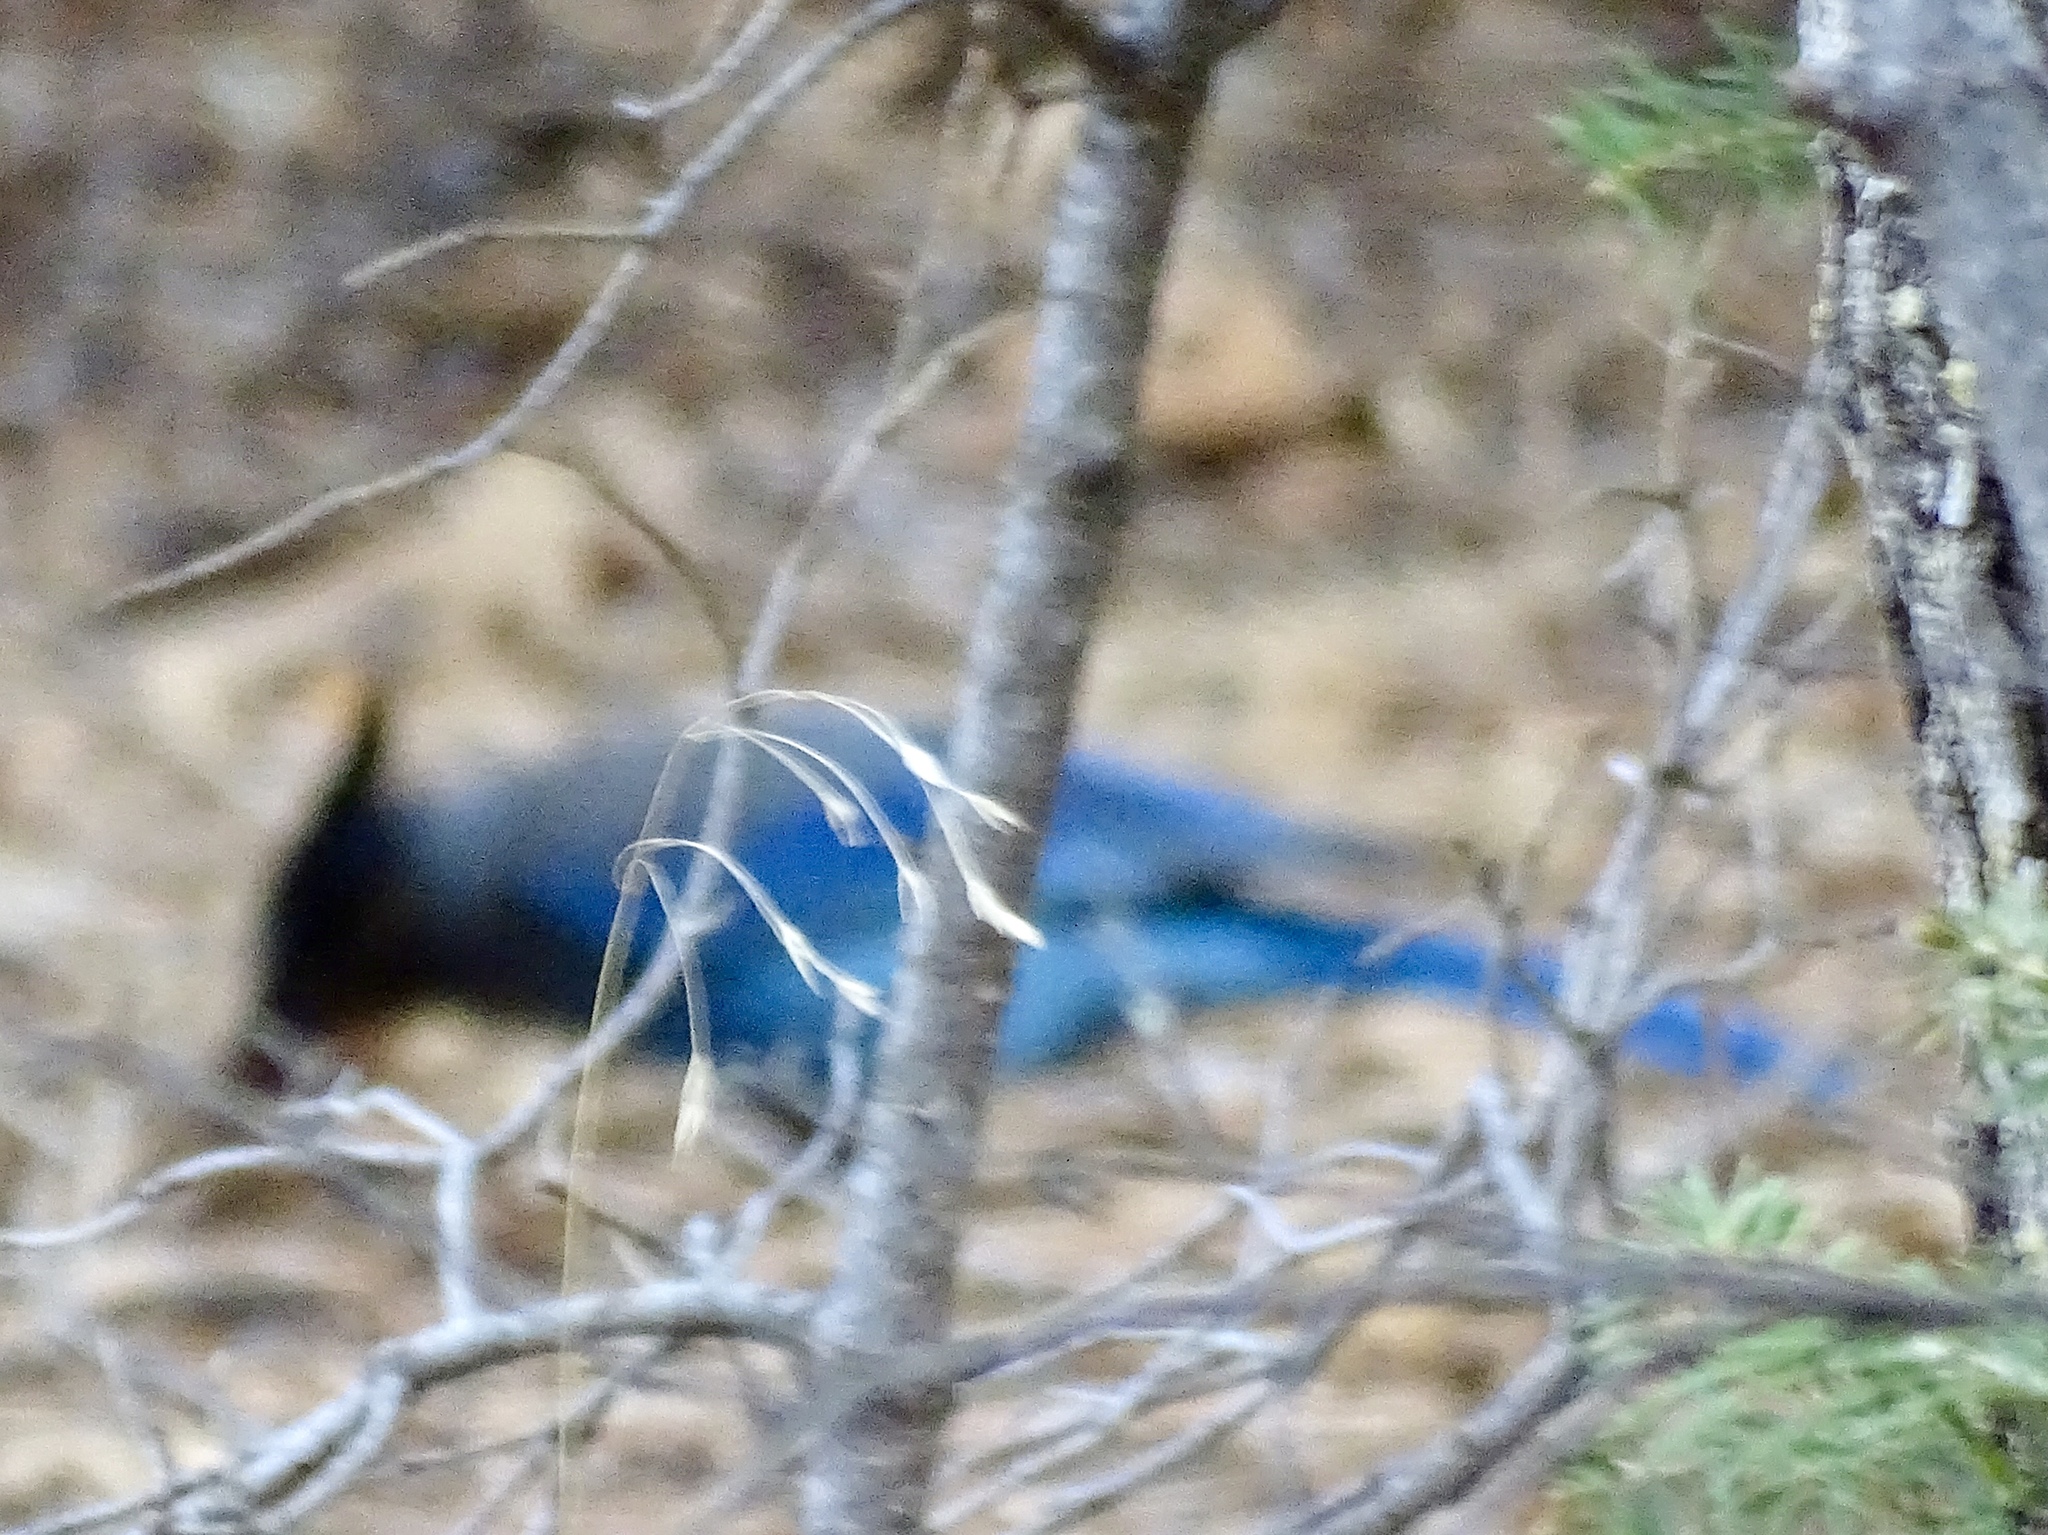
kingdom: Animalia
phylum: Chordata
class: Aves
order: Passeriformes
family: Corvidae
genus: Cyanocitta
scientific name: Cyanocitta stelleri
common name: Steller's jay
